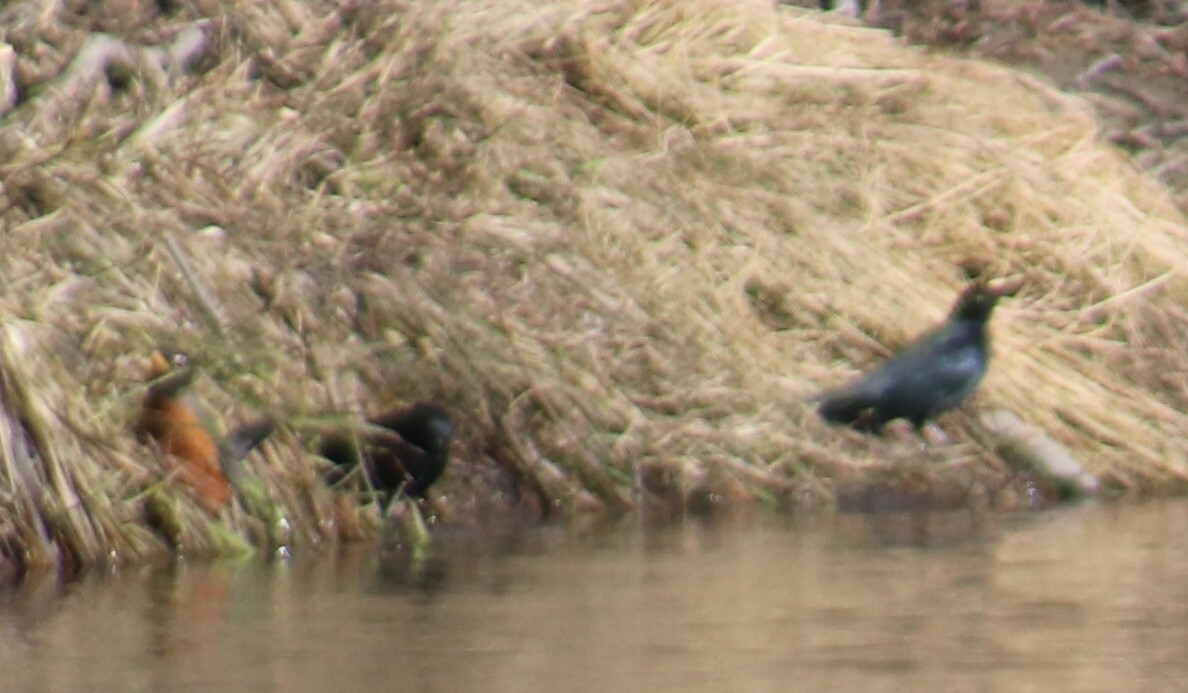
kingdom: Animalia
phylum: Chordata
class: Aves
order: Passeriformes
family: Icteridae
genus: Euphagus
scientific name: Euphagus carolinus
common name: Rusty blackbird
